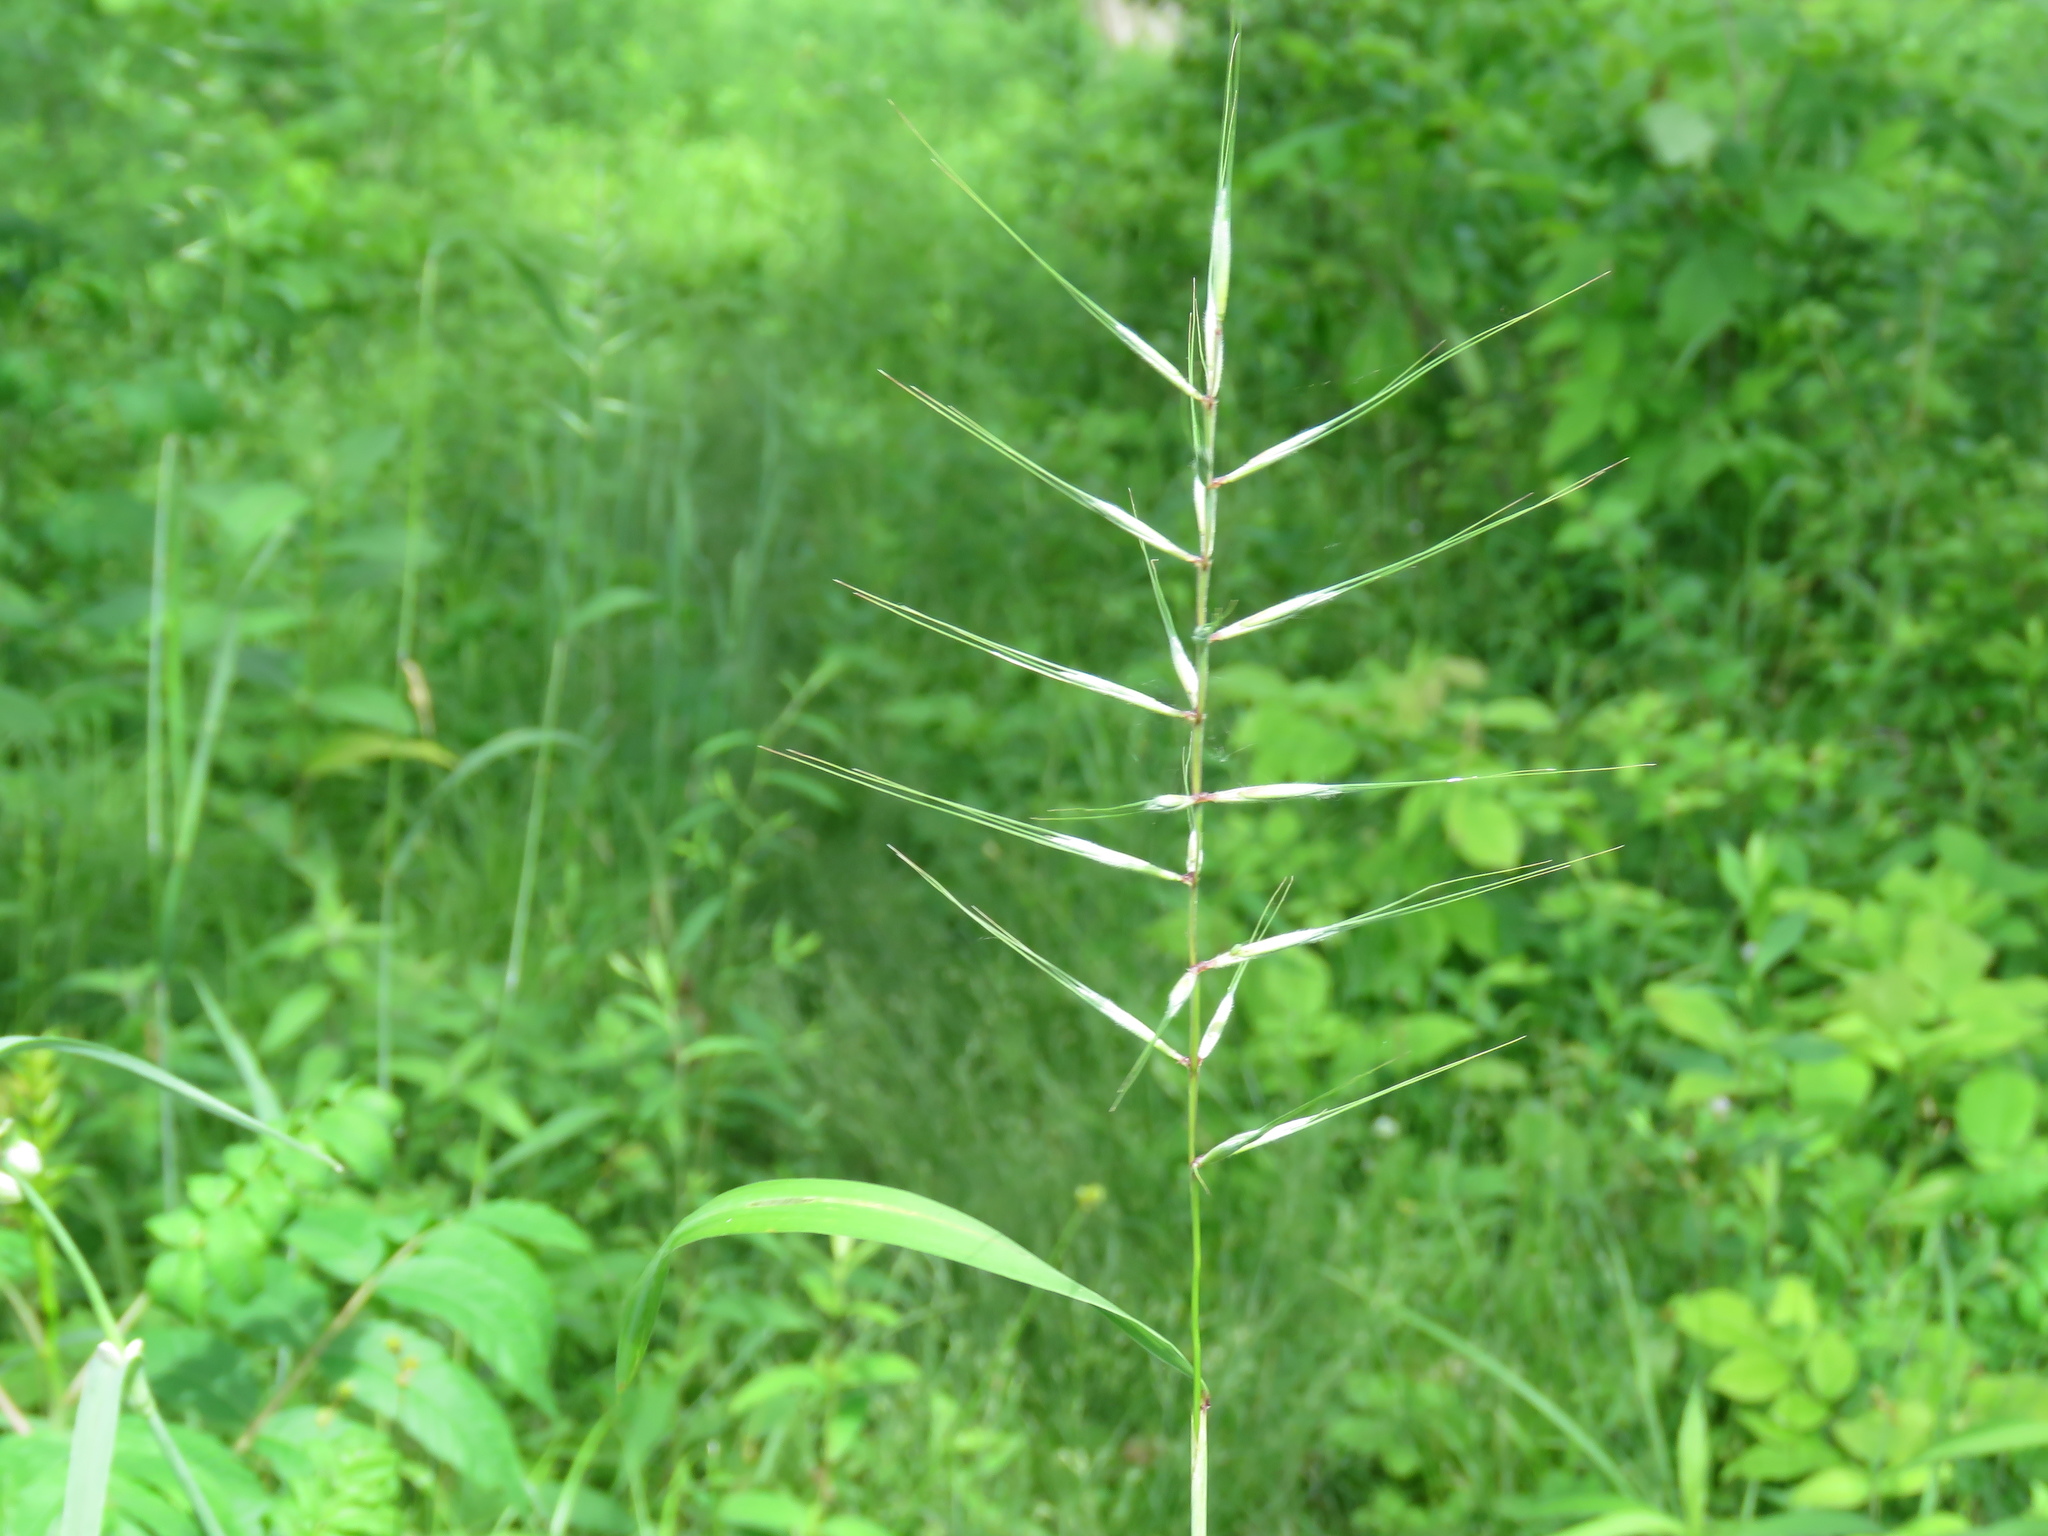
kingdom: Plantae
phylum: Tracheophyta
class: Liliopsida
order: Poales
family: Poaceae
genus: Elymus
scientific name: Elymus hystrix
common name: Bottlebrush grass
